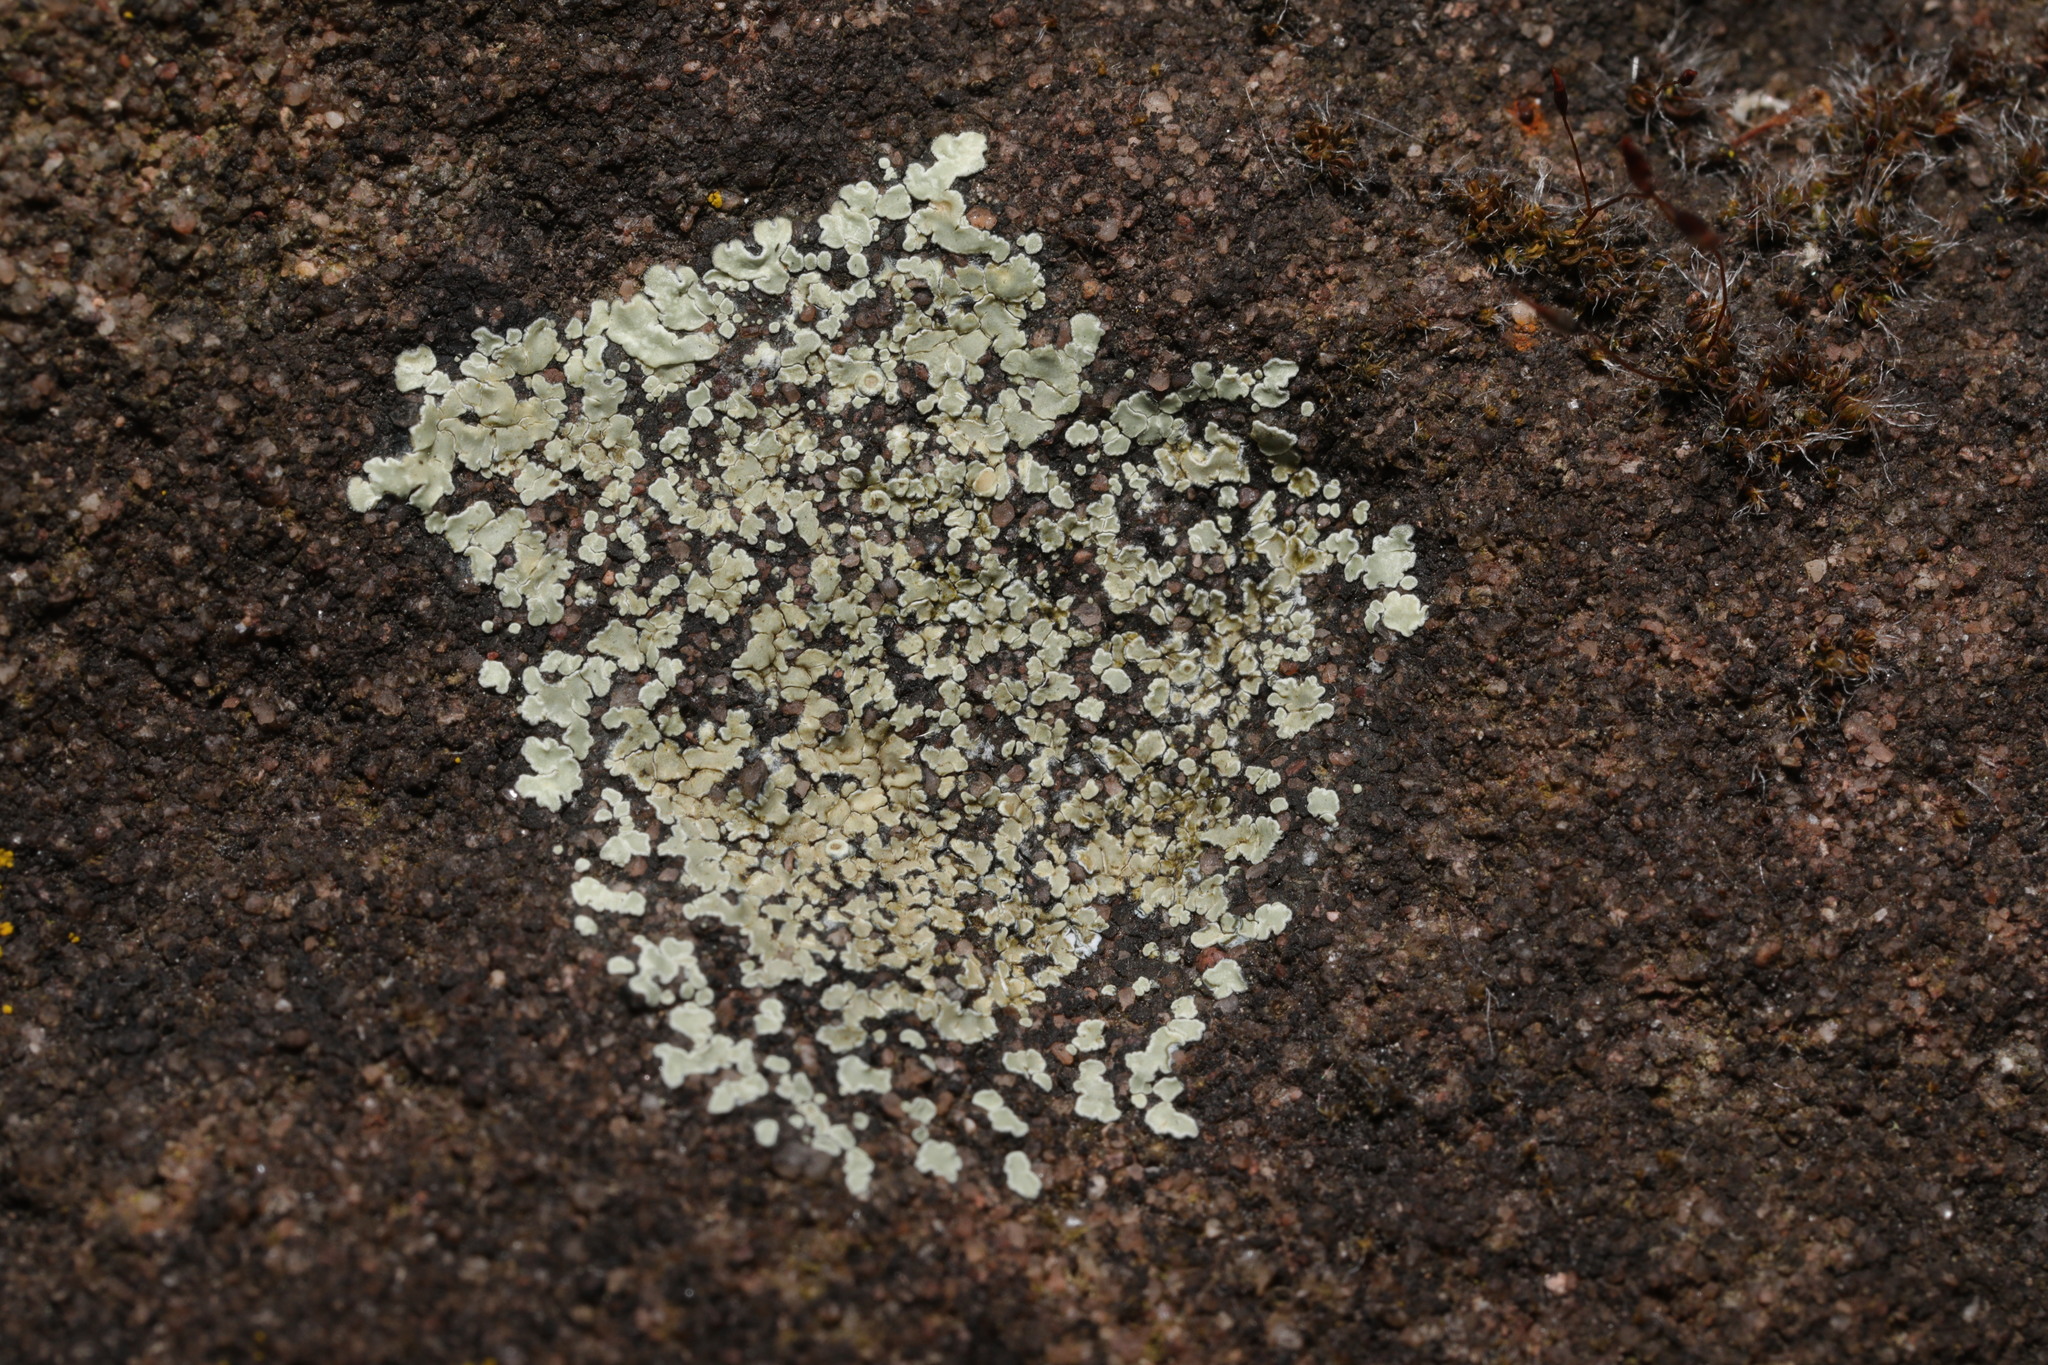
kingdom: Fungi
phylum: Ascomycota
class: Lecanoromycetes
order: Lecanorales
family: Lecanoraceae
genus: Protoparmeliopsis
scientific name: Protoparmeliopsis muralis
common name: Stonewall rim lichen
